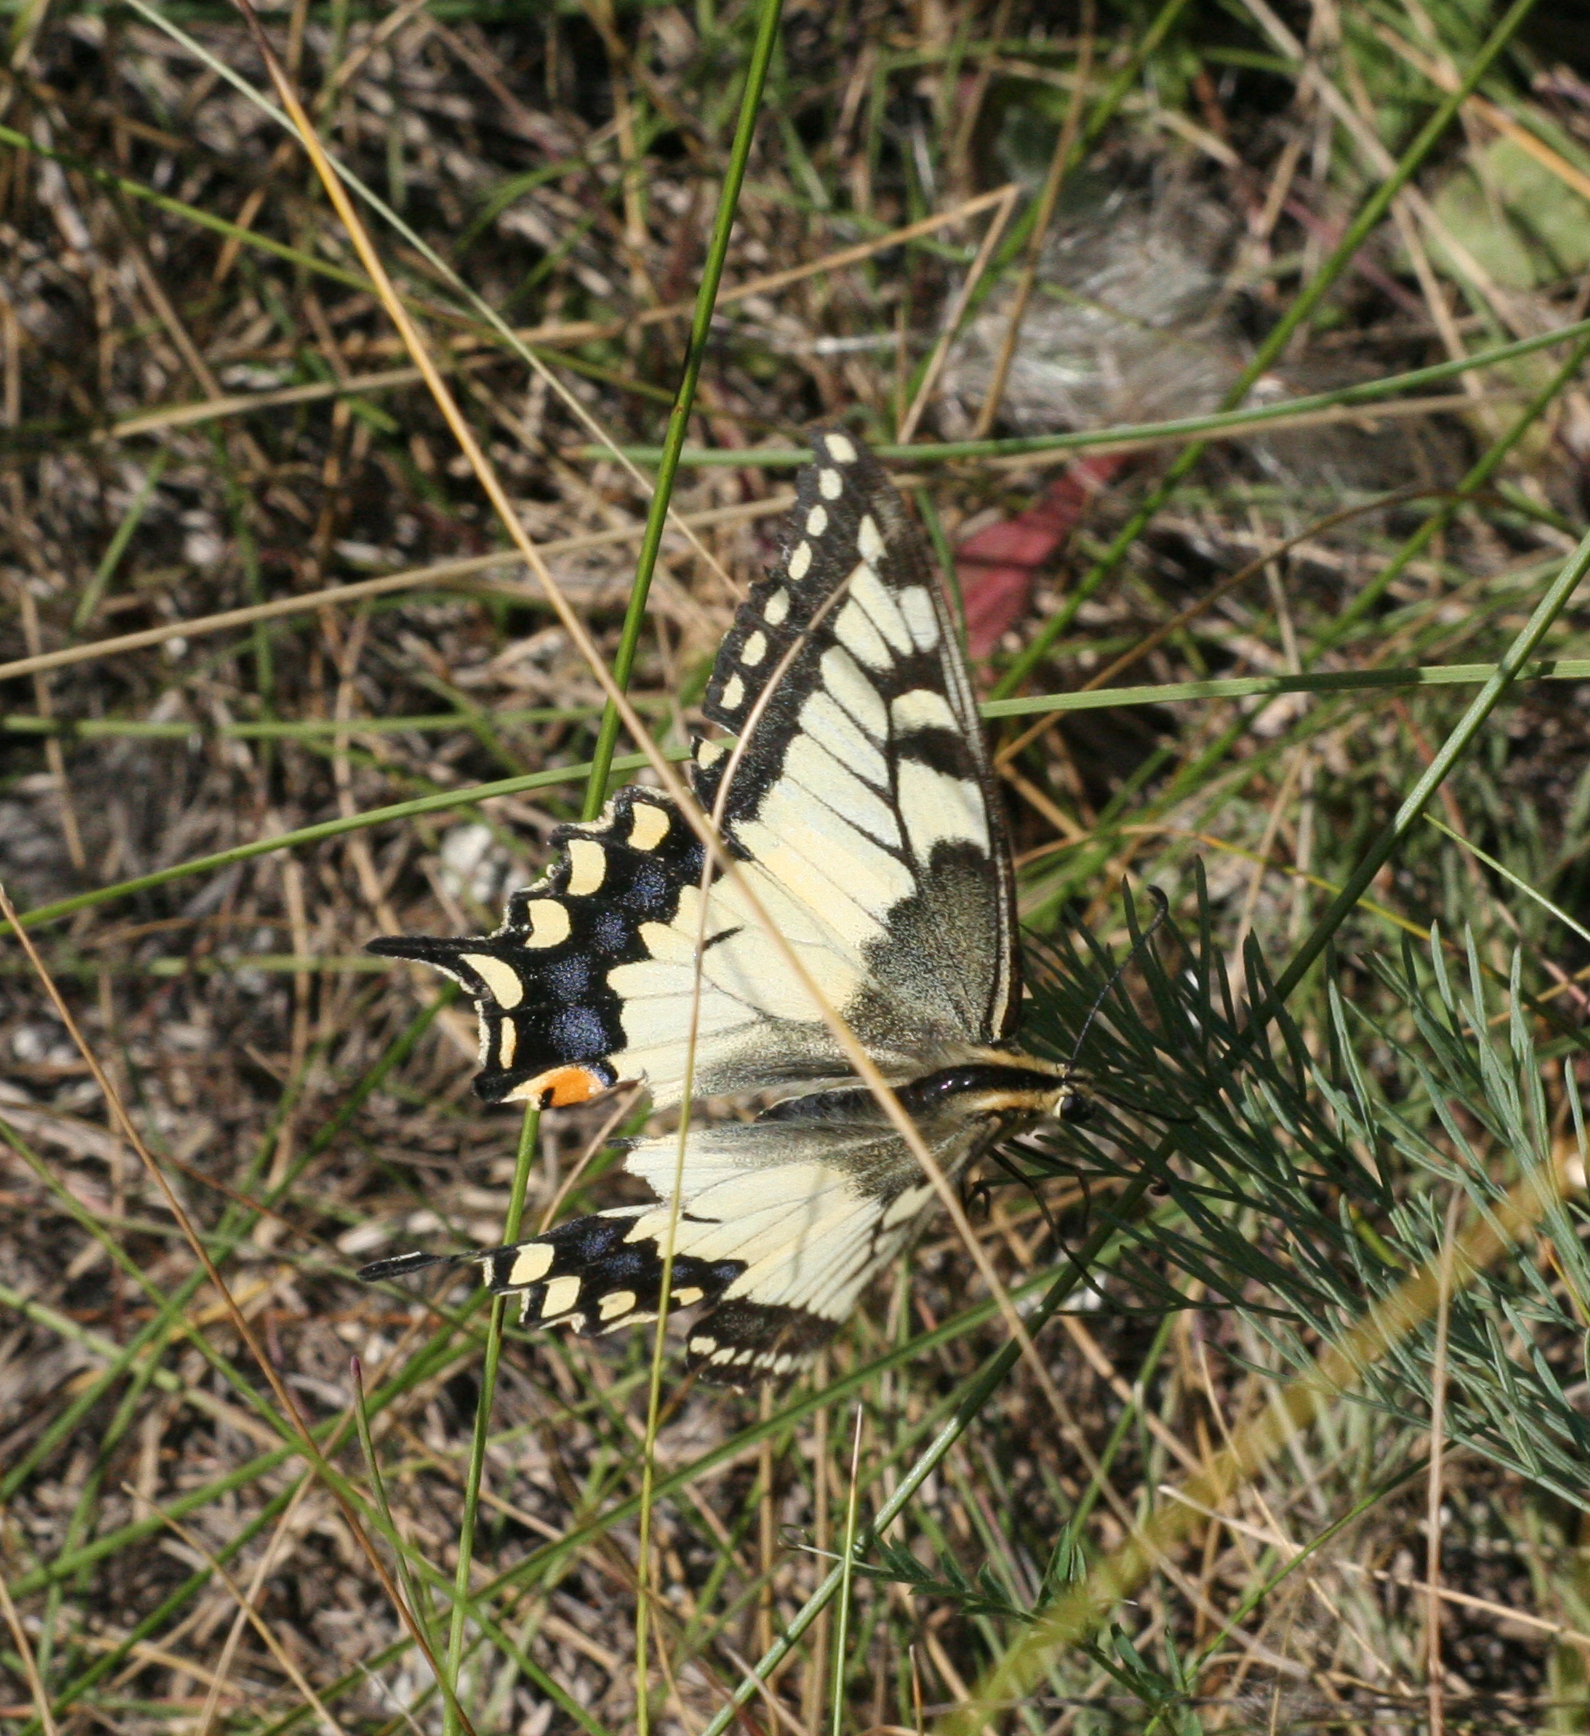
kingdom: Animalia
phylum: Arthropoda
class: Insecta
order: Lepidoptera
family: Papilionidae
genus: Papilio
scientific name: Papilio machaon
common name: Swallowtail
